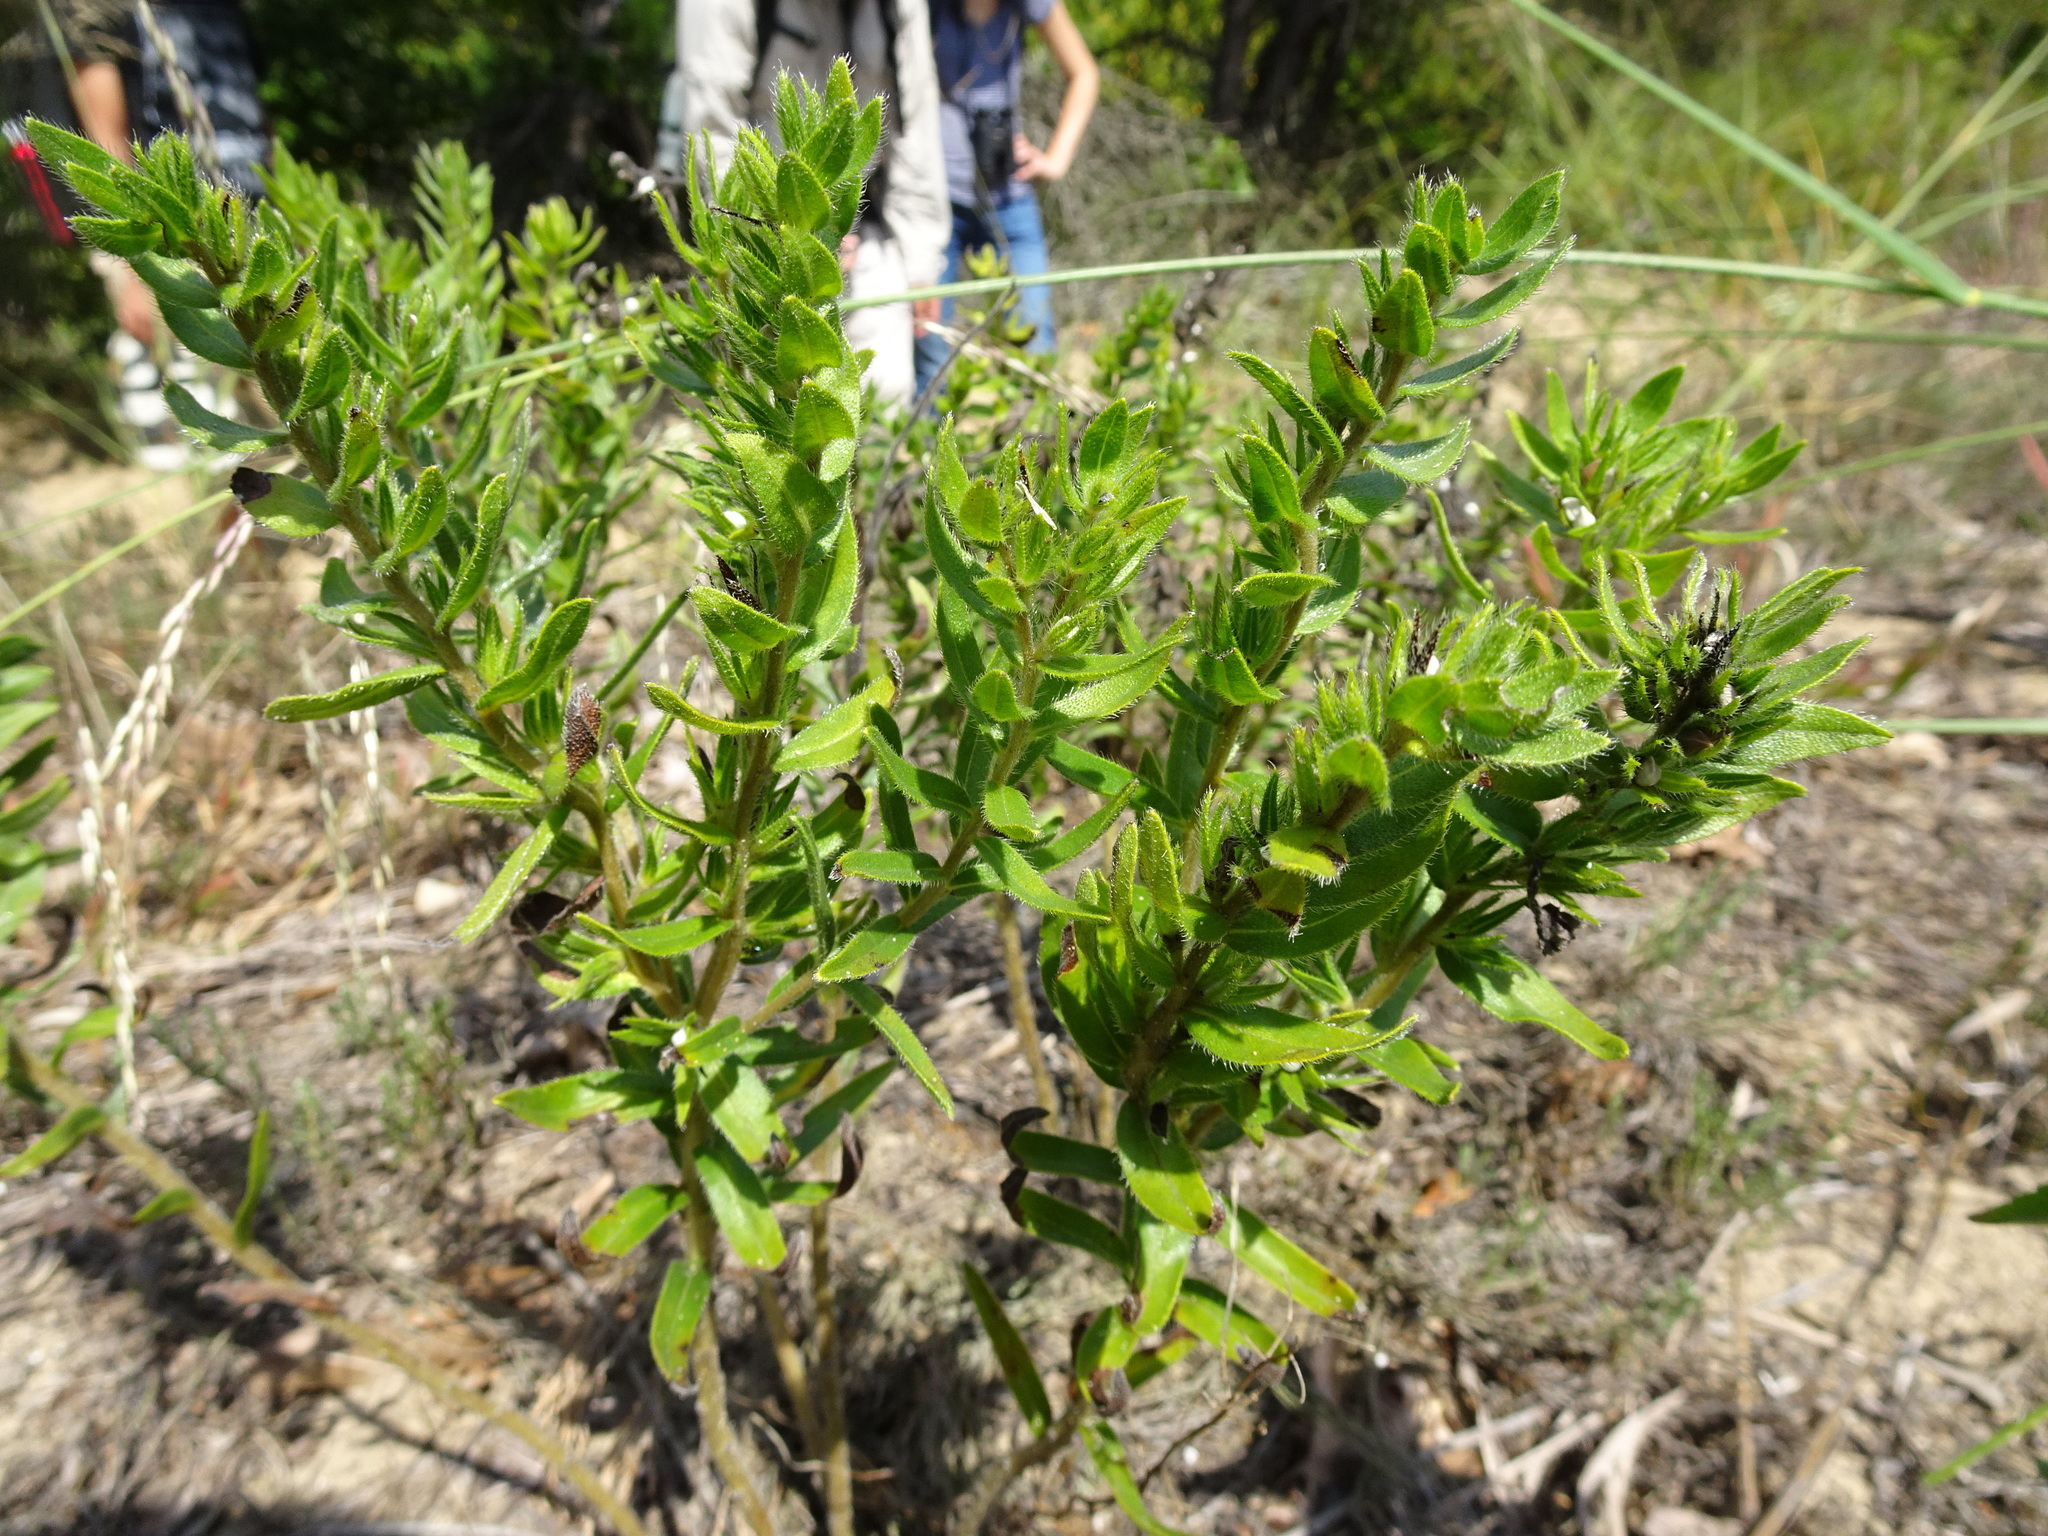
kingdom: Plantae
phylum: Tracheophyta
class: Magnoliopsida
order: Boraginales
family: Boraginaceae
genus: Lithospermum
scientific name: Lithospermum caroliniense
